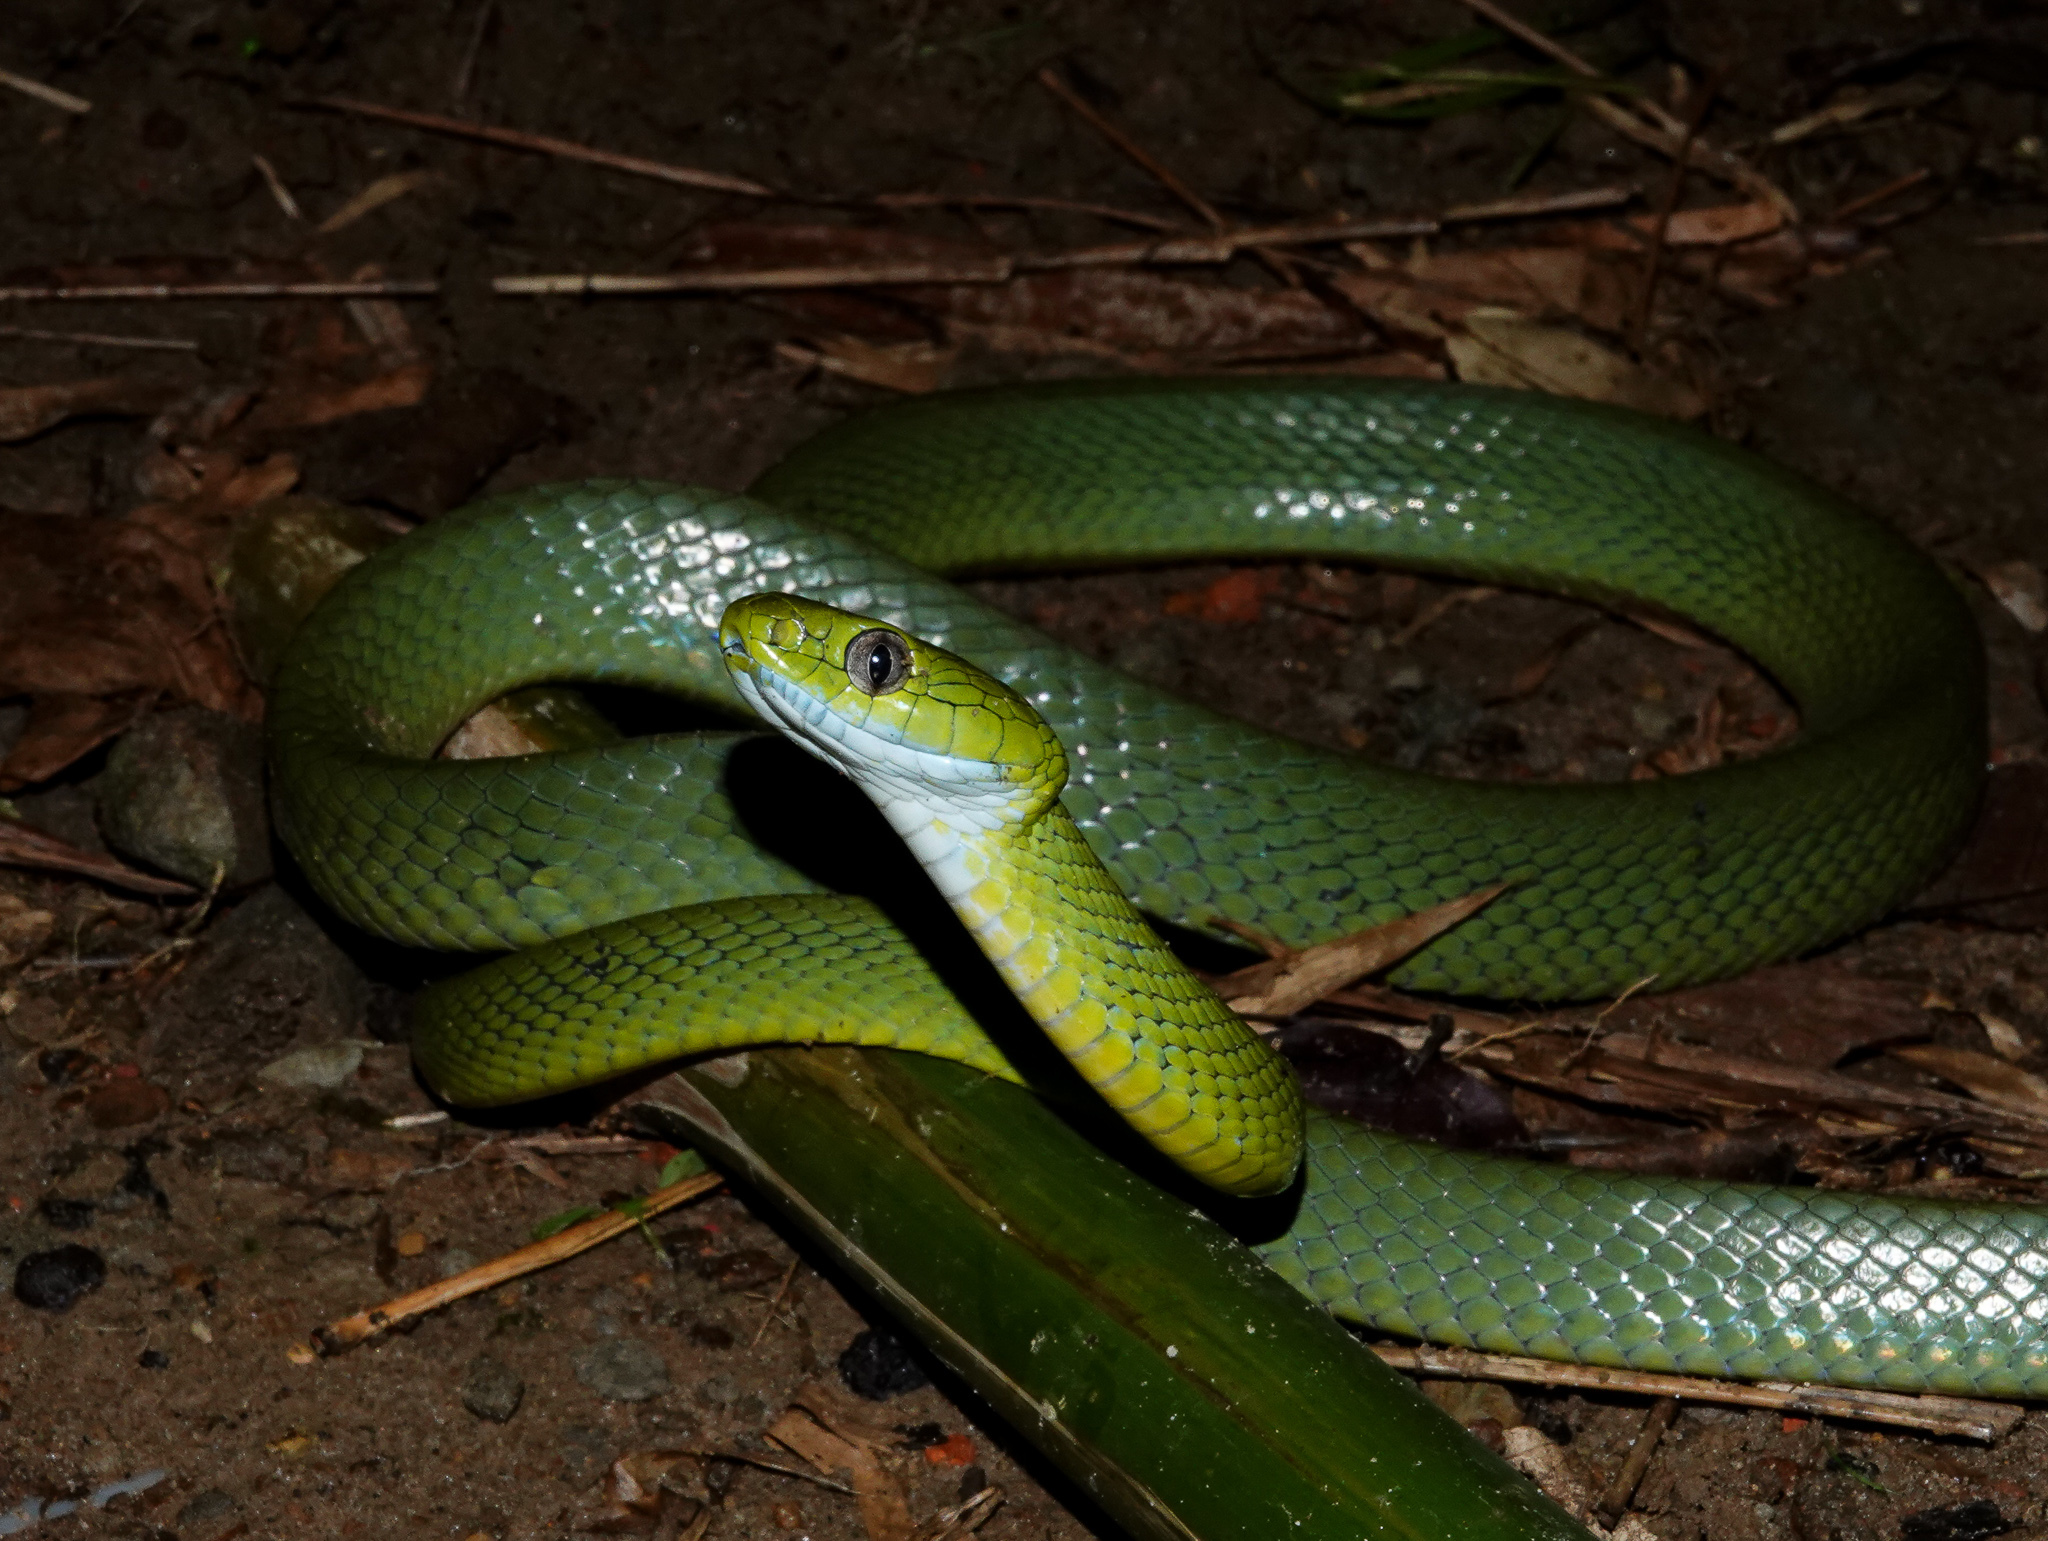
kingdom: Animalia
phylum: Chordata
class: Squamata
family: Colubridae
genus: Boiga
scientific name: Boiga cyanea
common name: Green cat snake
